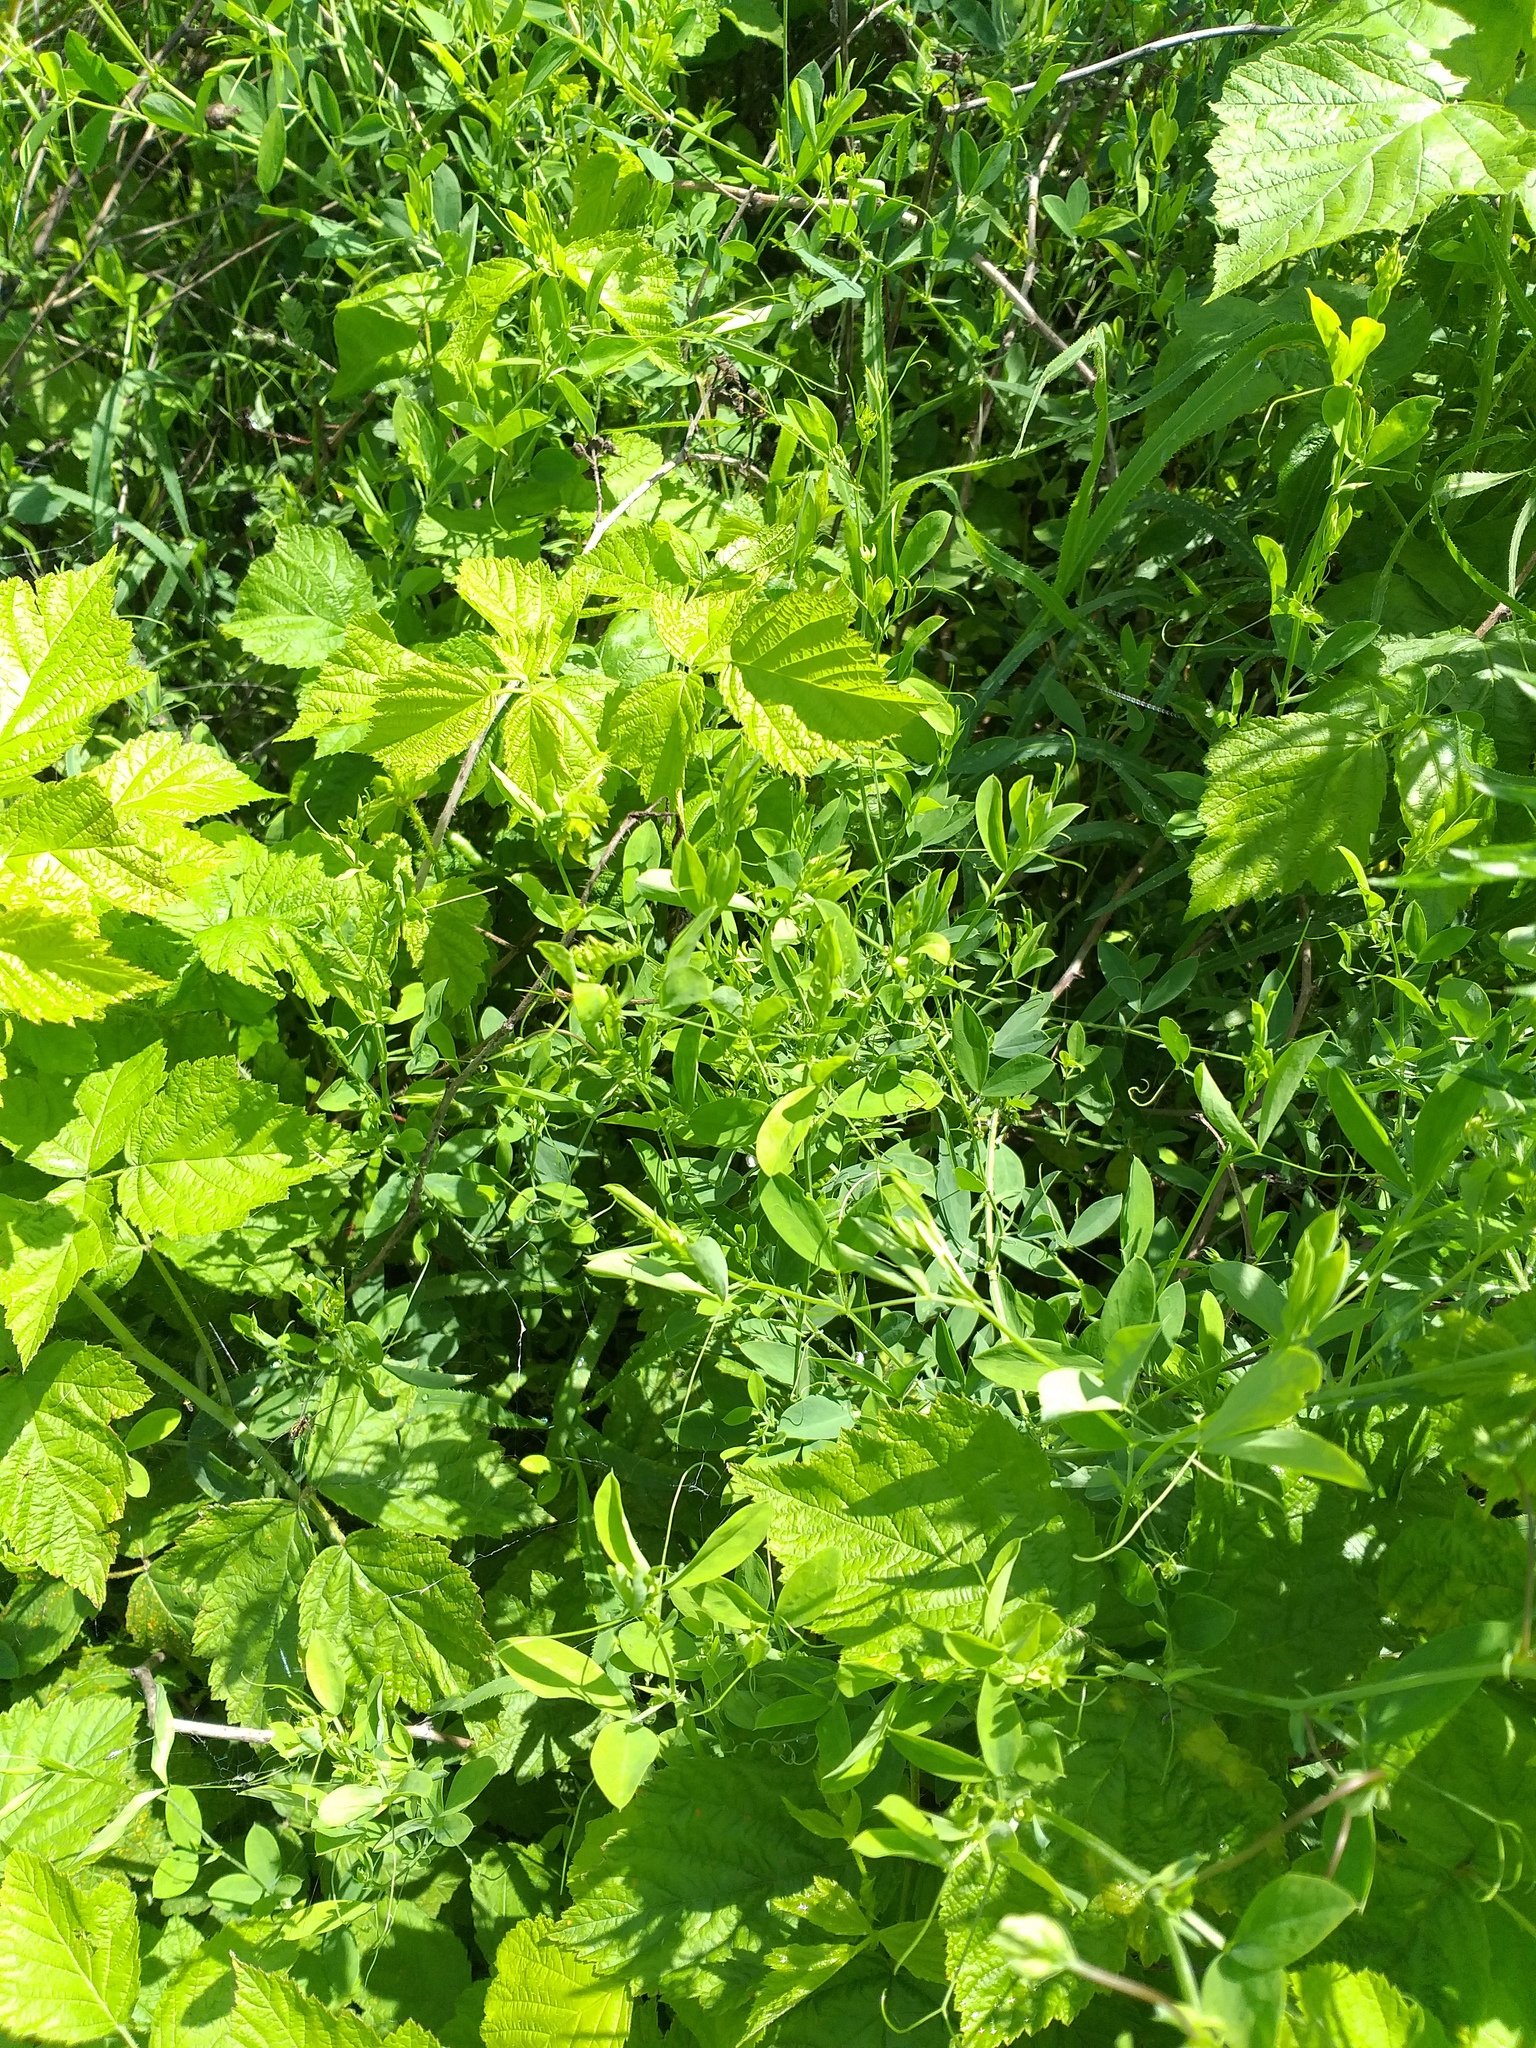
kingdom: Plantae
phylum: Tracheophyta
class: Magnoliopsida
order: Fabales
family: Fabaceae
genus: Lathyrus
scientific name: Lathyrus tuberosus
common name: Tuberous pea
